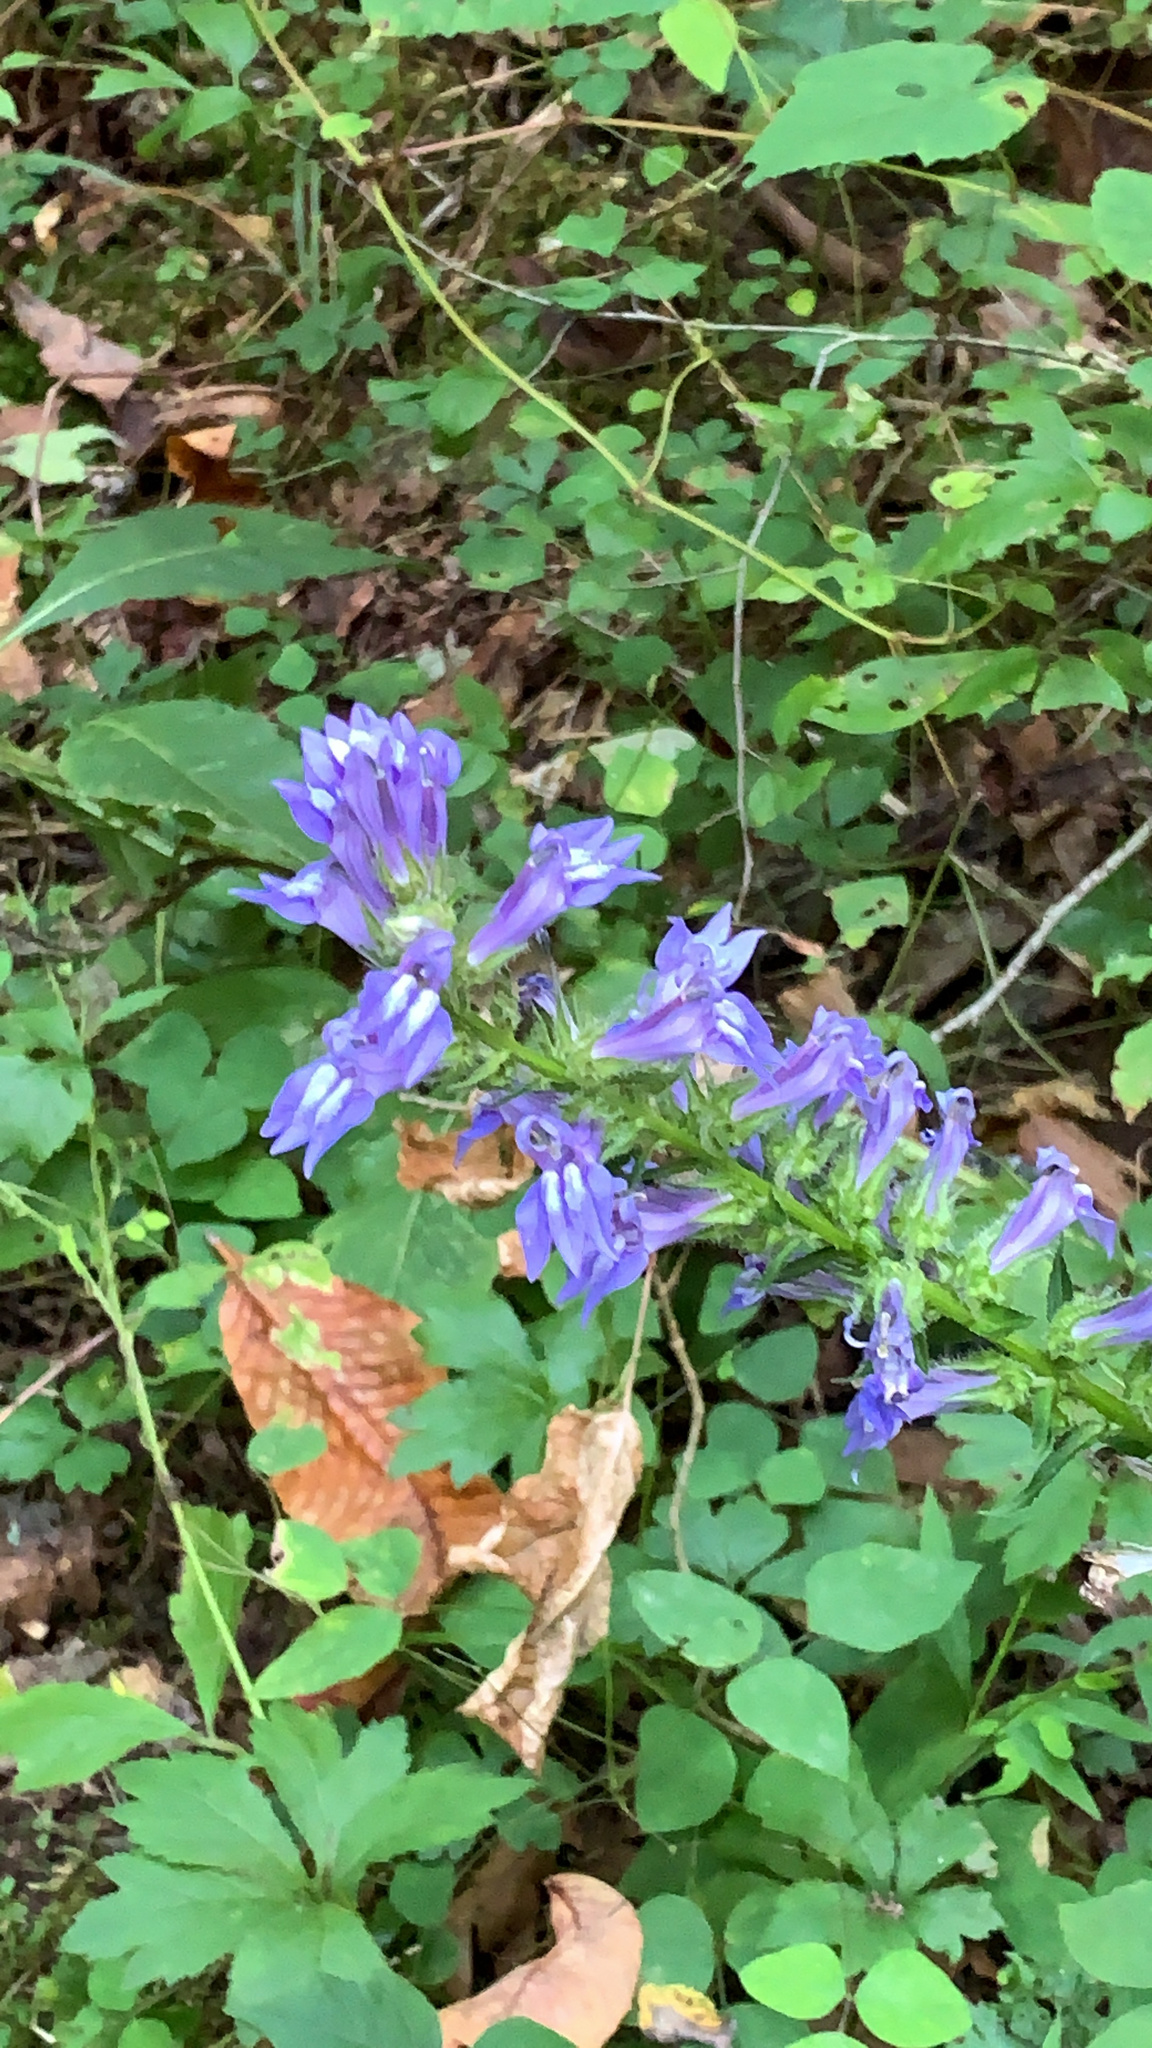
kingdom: Plantae
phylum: Tracheophyta
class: Magnoliopsida
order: Asterales
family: Campanulaceae
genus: Lobelia
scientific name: Lobelia siphilitica
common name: Great lobelia
